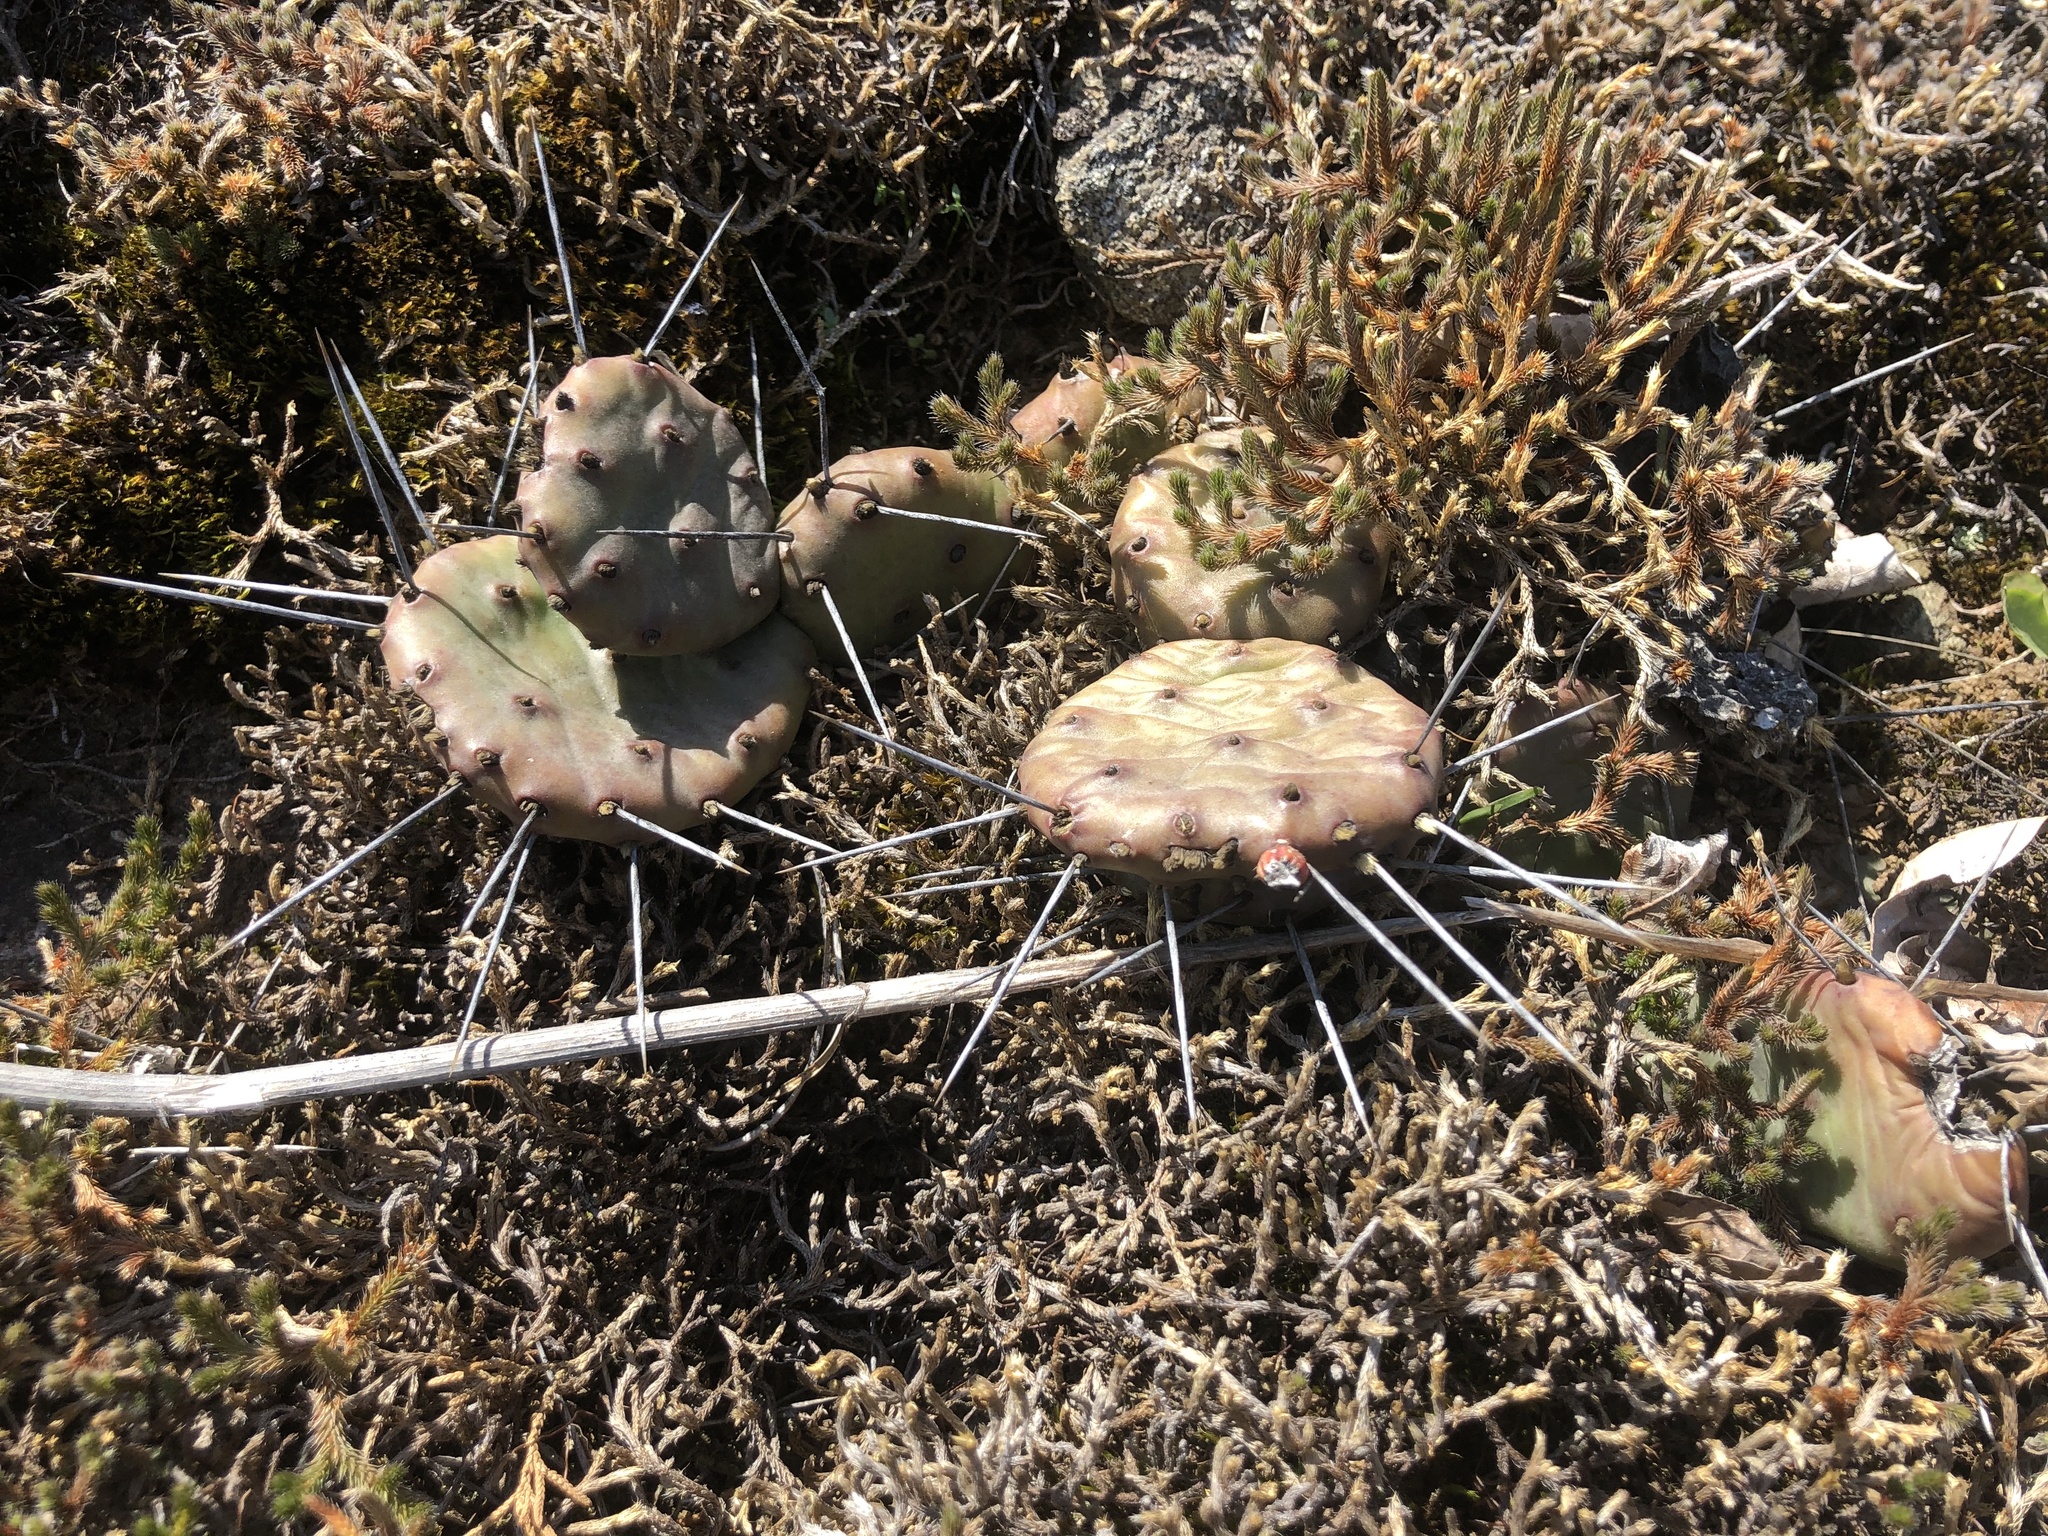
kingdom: Plantae
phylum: Tracheophyta
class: Magnoliopsida
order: Caryophyllales
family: Cactaceae
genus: Opuntia
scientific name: Opuntia mesacantha
